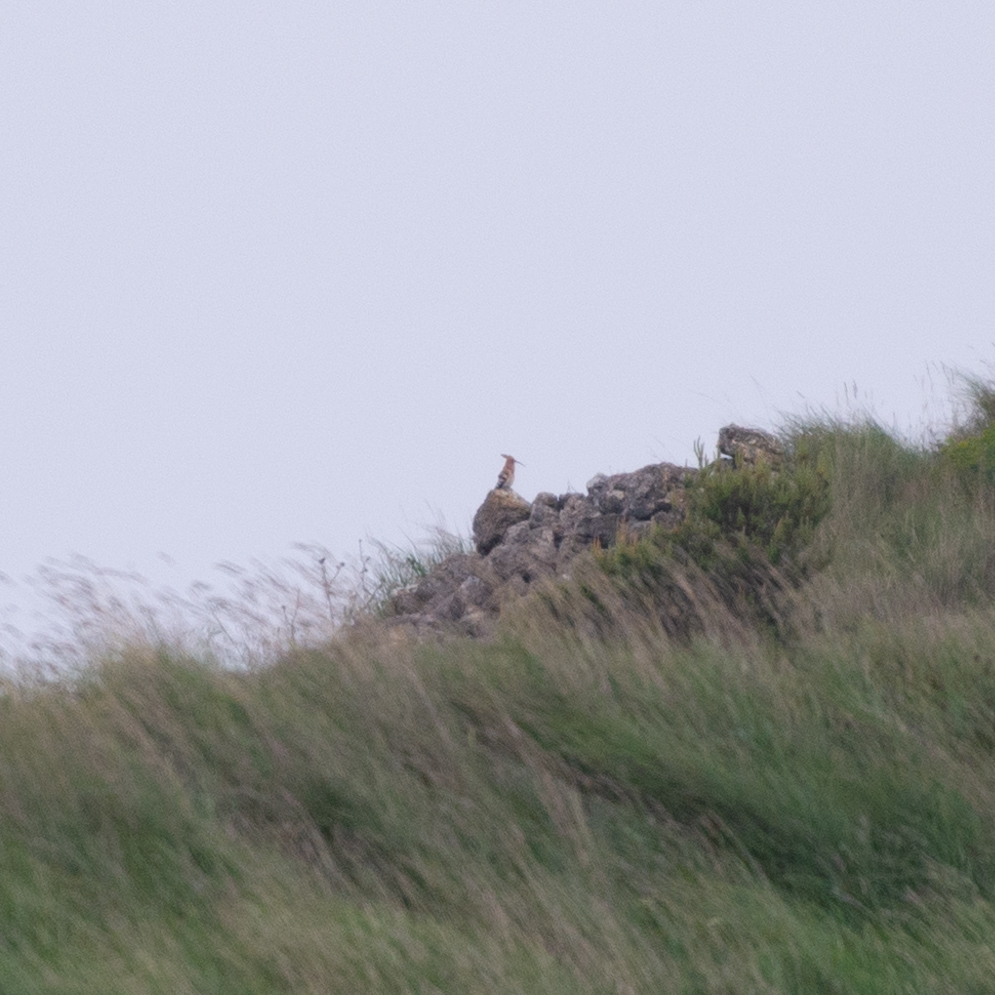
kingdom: Animalia
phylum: Chordata
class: Aves
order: Bucerotiformes
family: Upupidae
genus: Upupa
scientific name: Upupa epops
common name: Eurasian hoopoe
